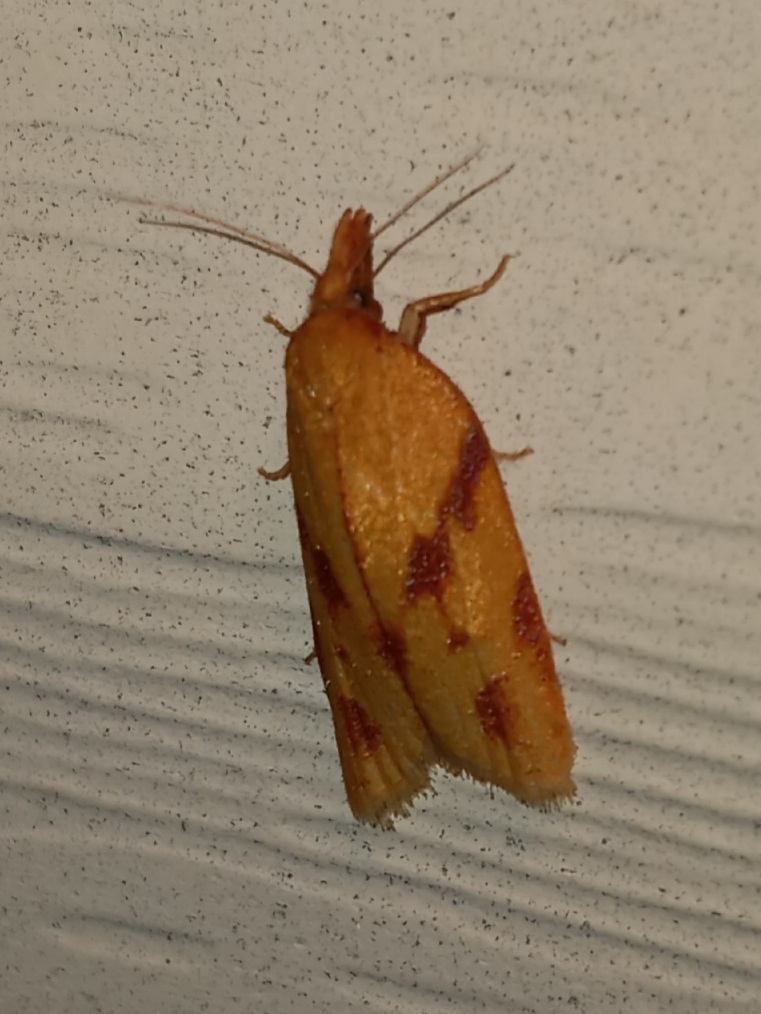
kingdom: Animalia
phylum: Arthropoda
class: Insecta
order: Lepidoptera
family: Tortricidae
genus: Sparganothis
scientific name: Sparganothis unifasciana
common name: One-lined sparganothis moth
